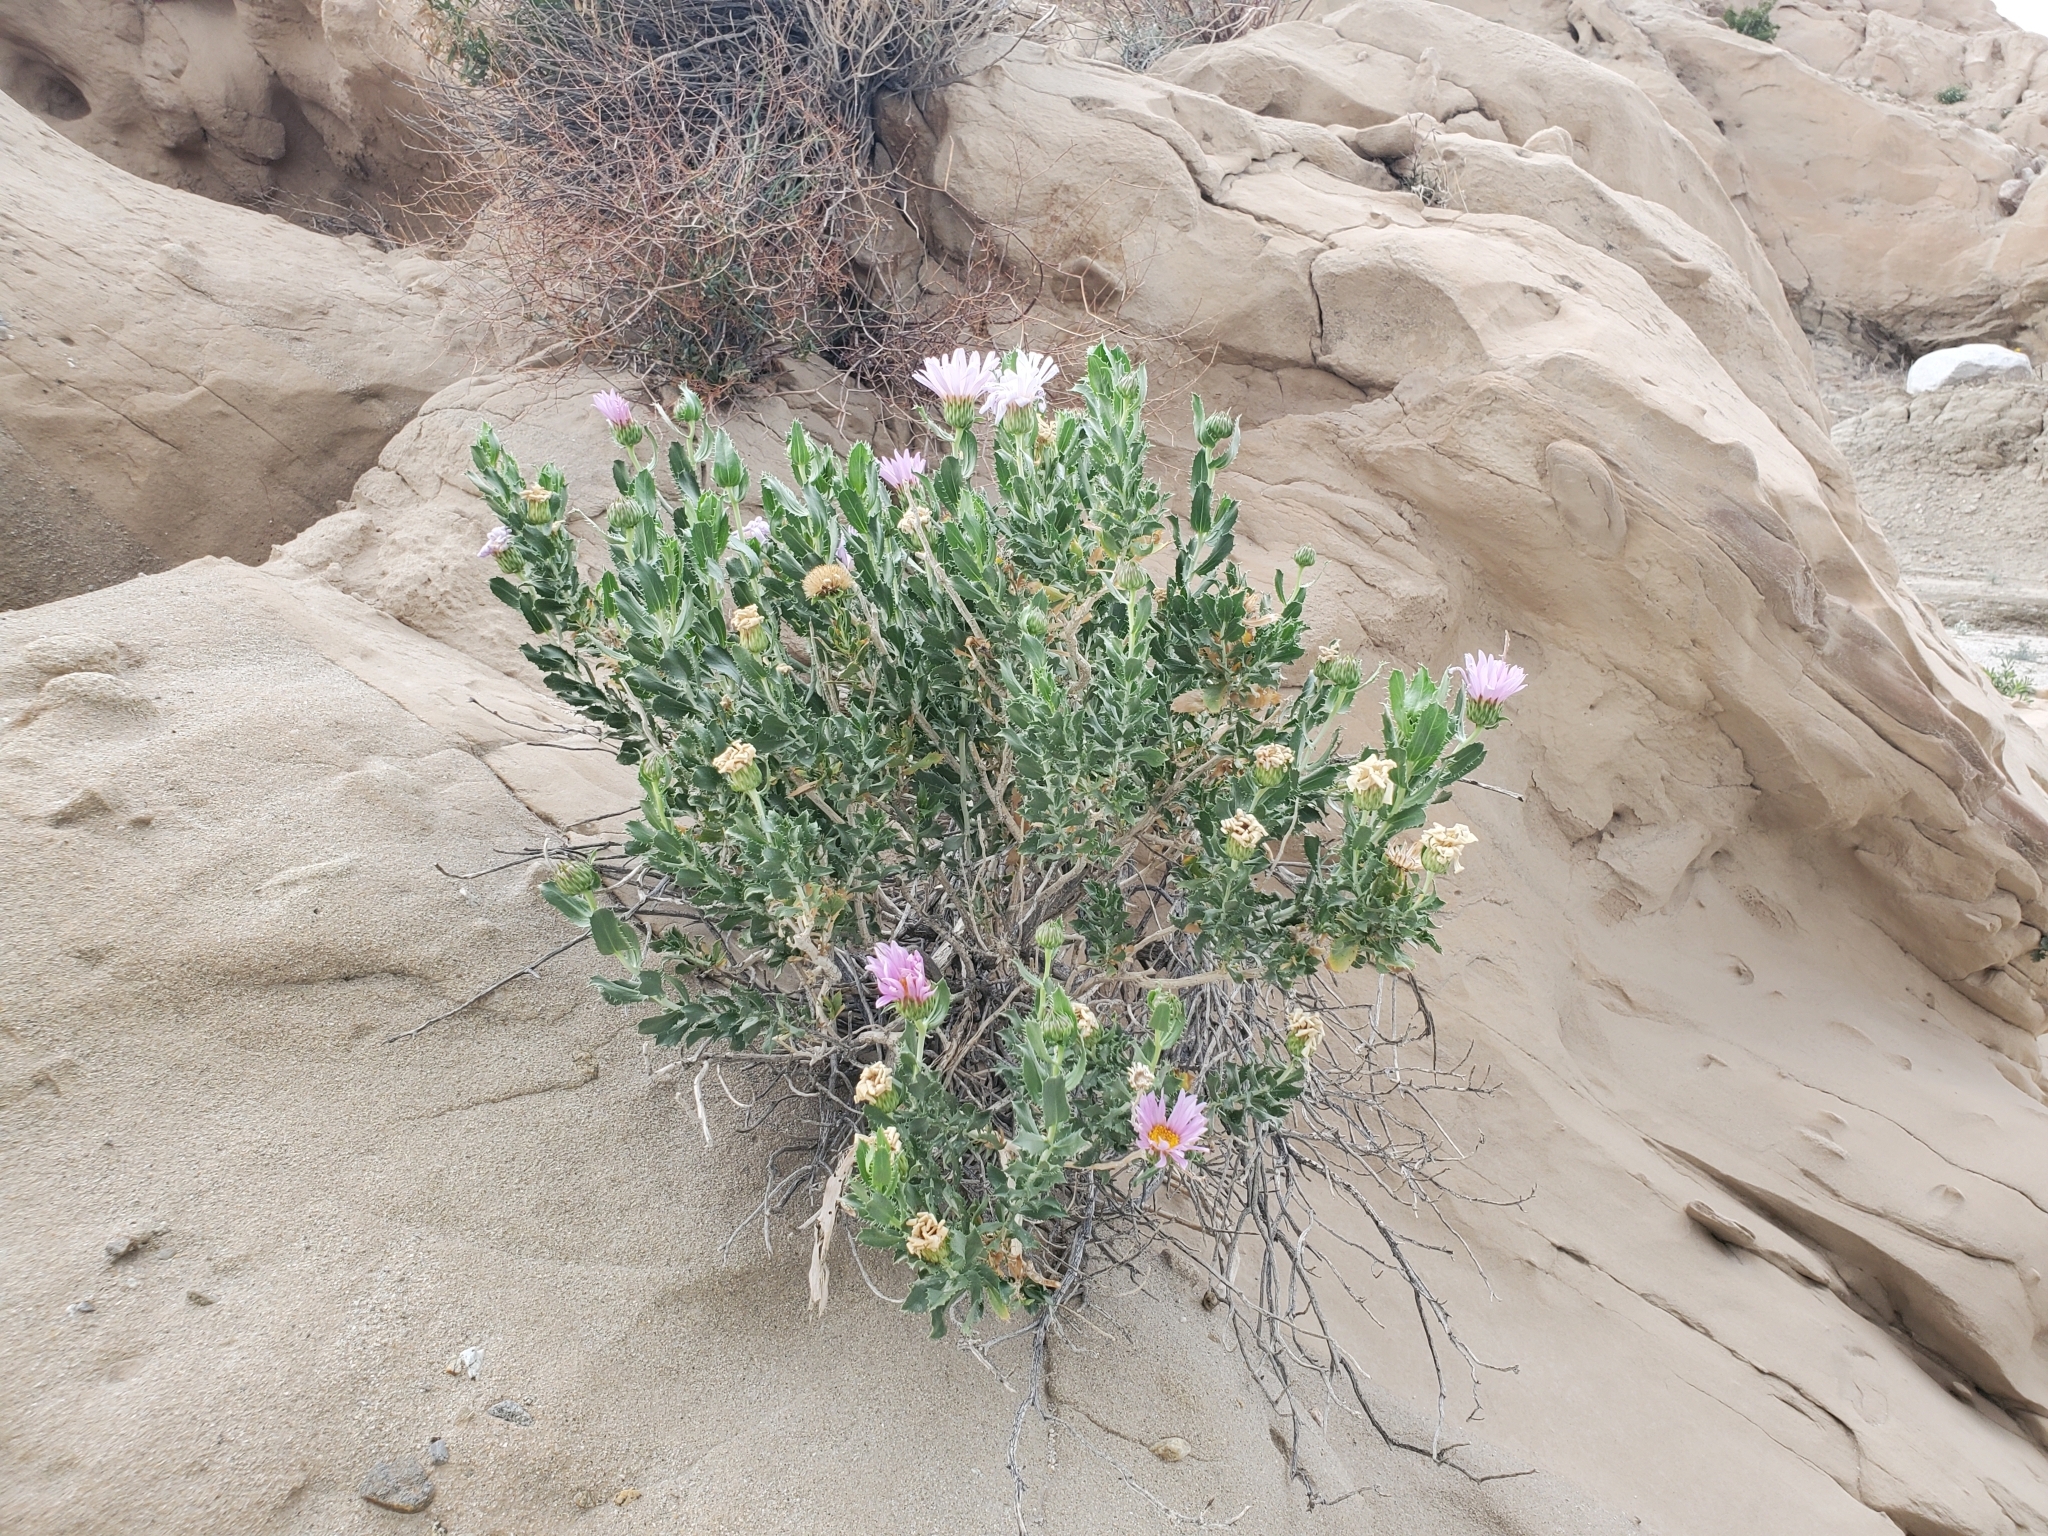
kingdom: Plantae
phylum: Tracheophyta
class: Magnoliopsida
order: Asterales
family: Asteraceae
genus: Xylorhiza
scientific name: Xylorhiza orcuttii
